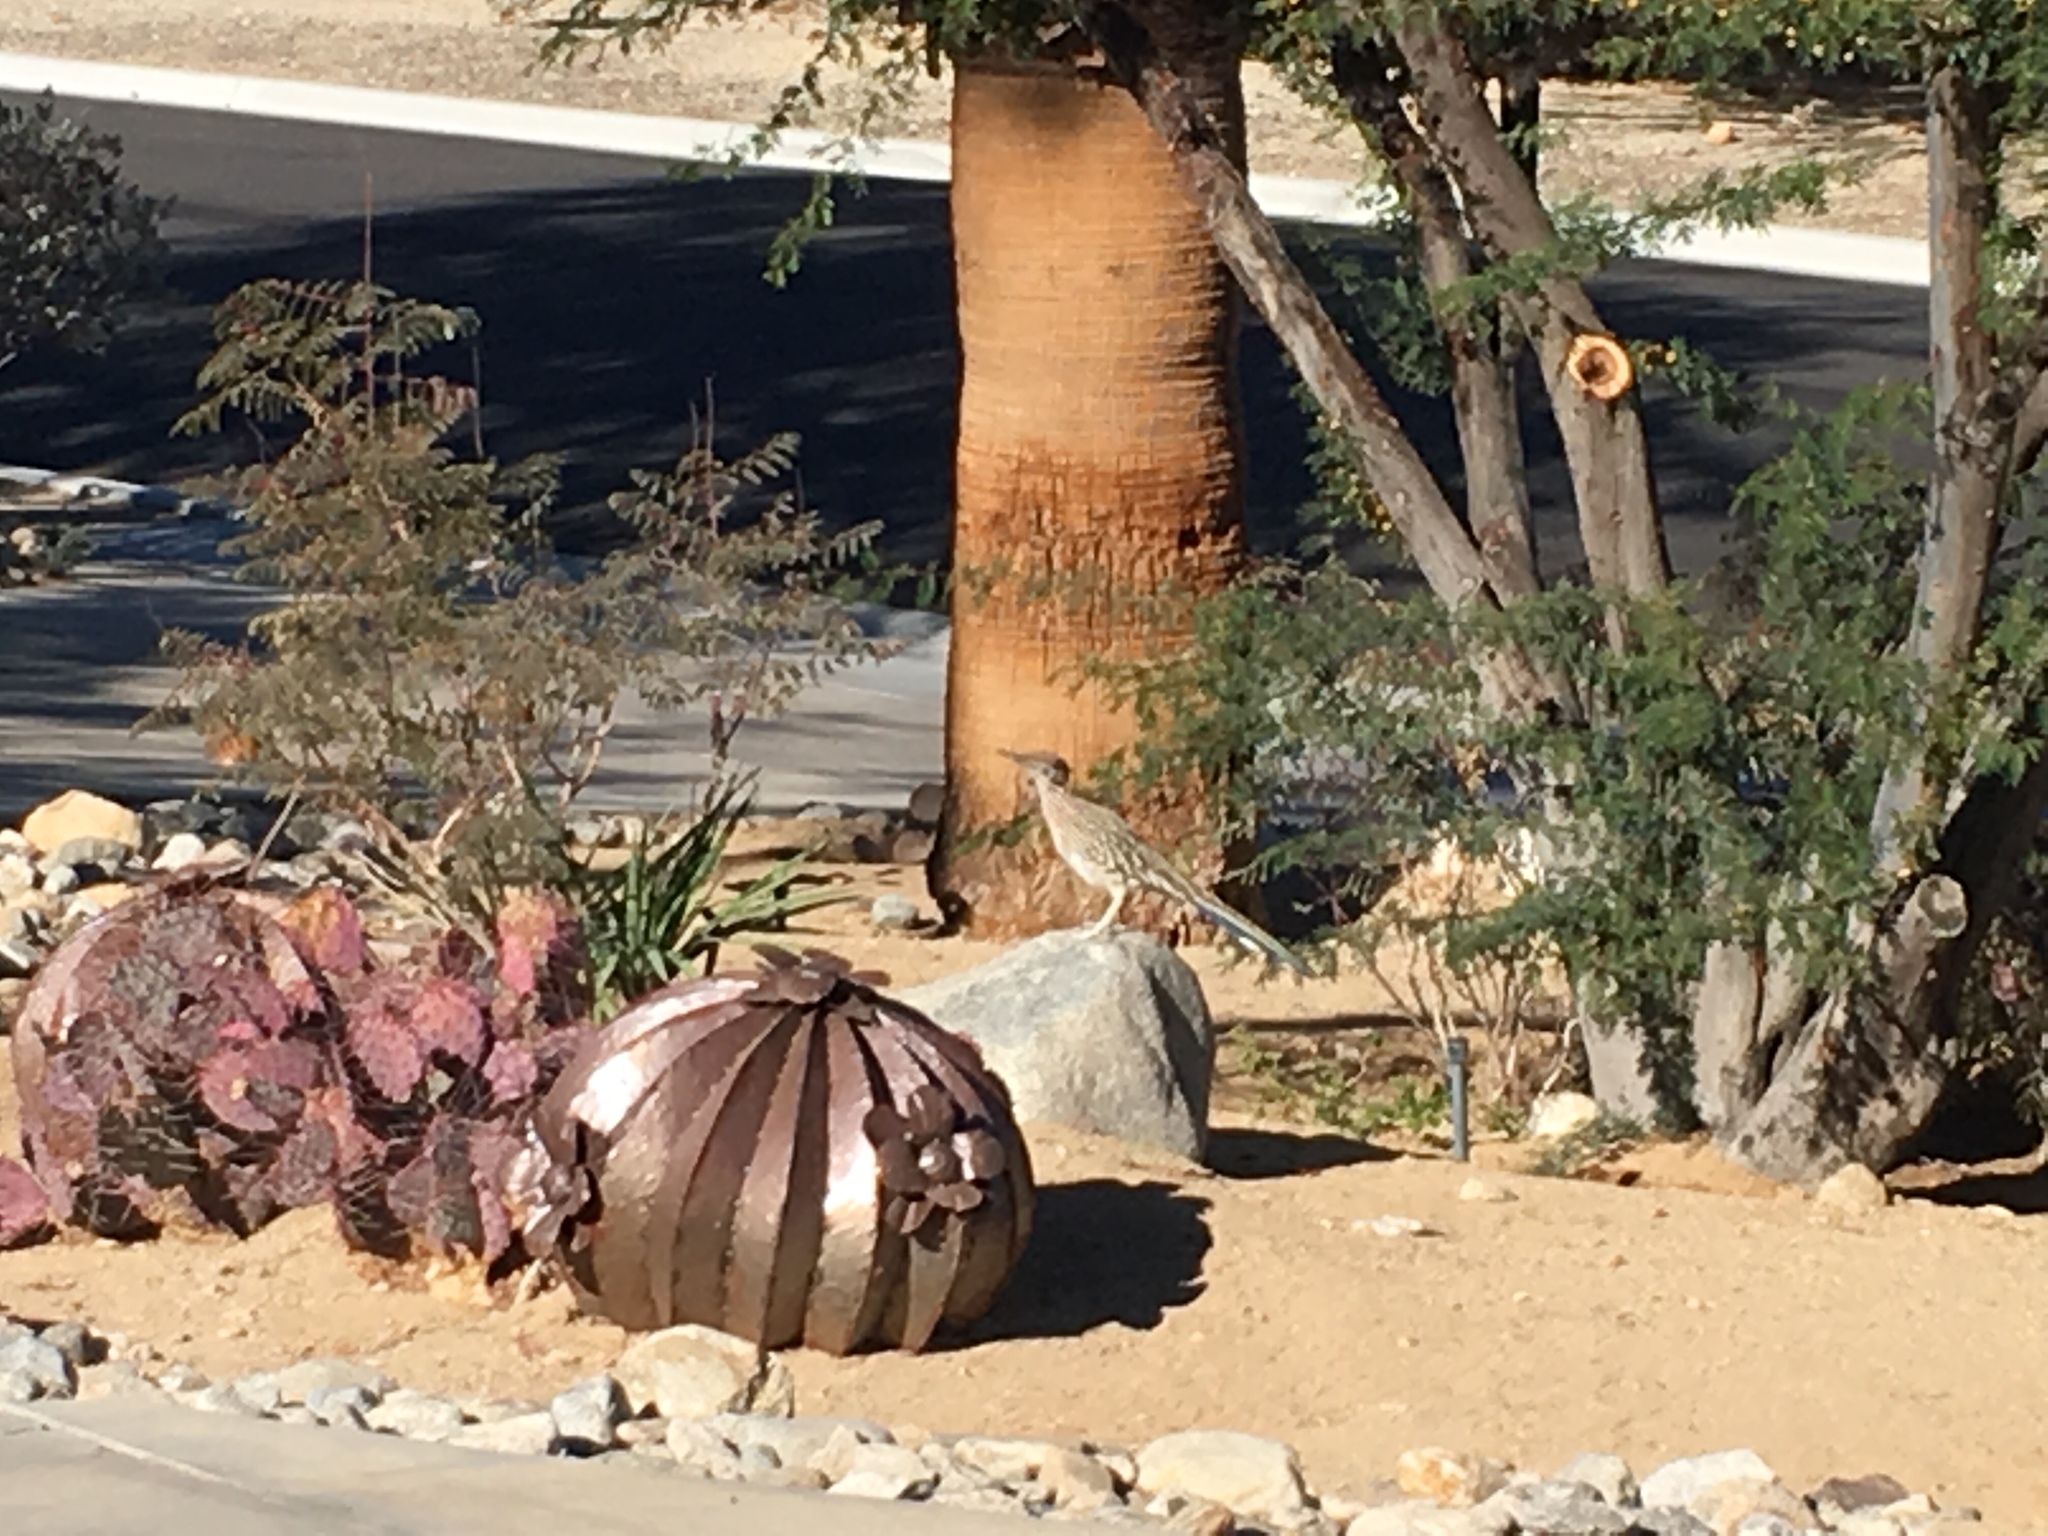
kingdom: Animalia
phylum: Chordata
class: Aves
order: Cuculiformes
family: Cuculidae
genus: Geococcyx
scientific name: Geococcyx californianus
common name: Greater roadrunner
